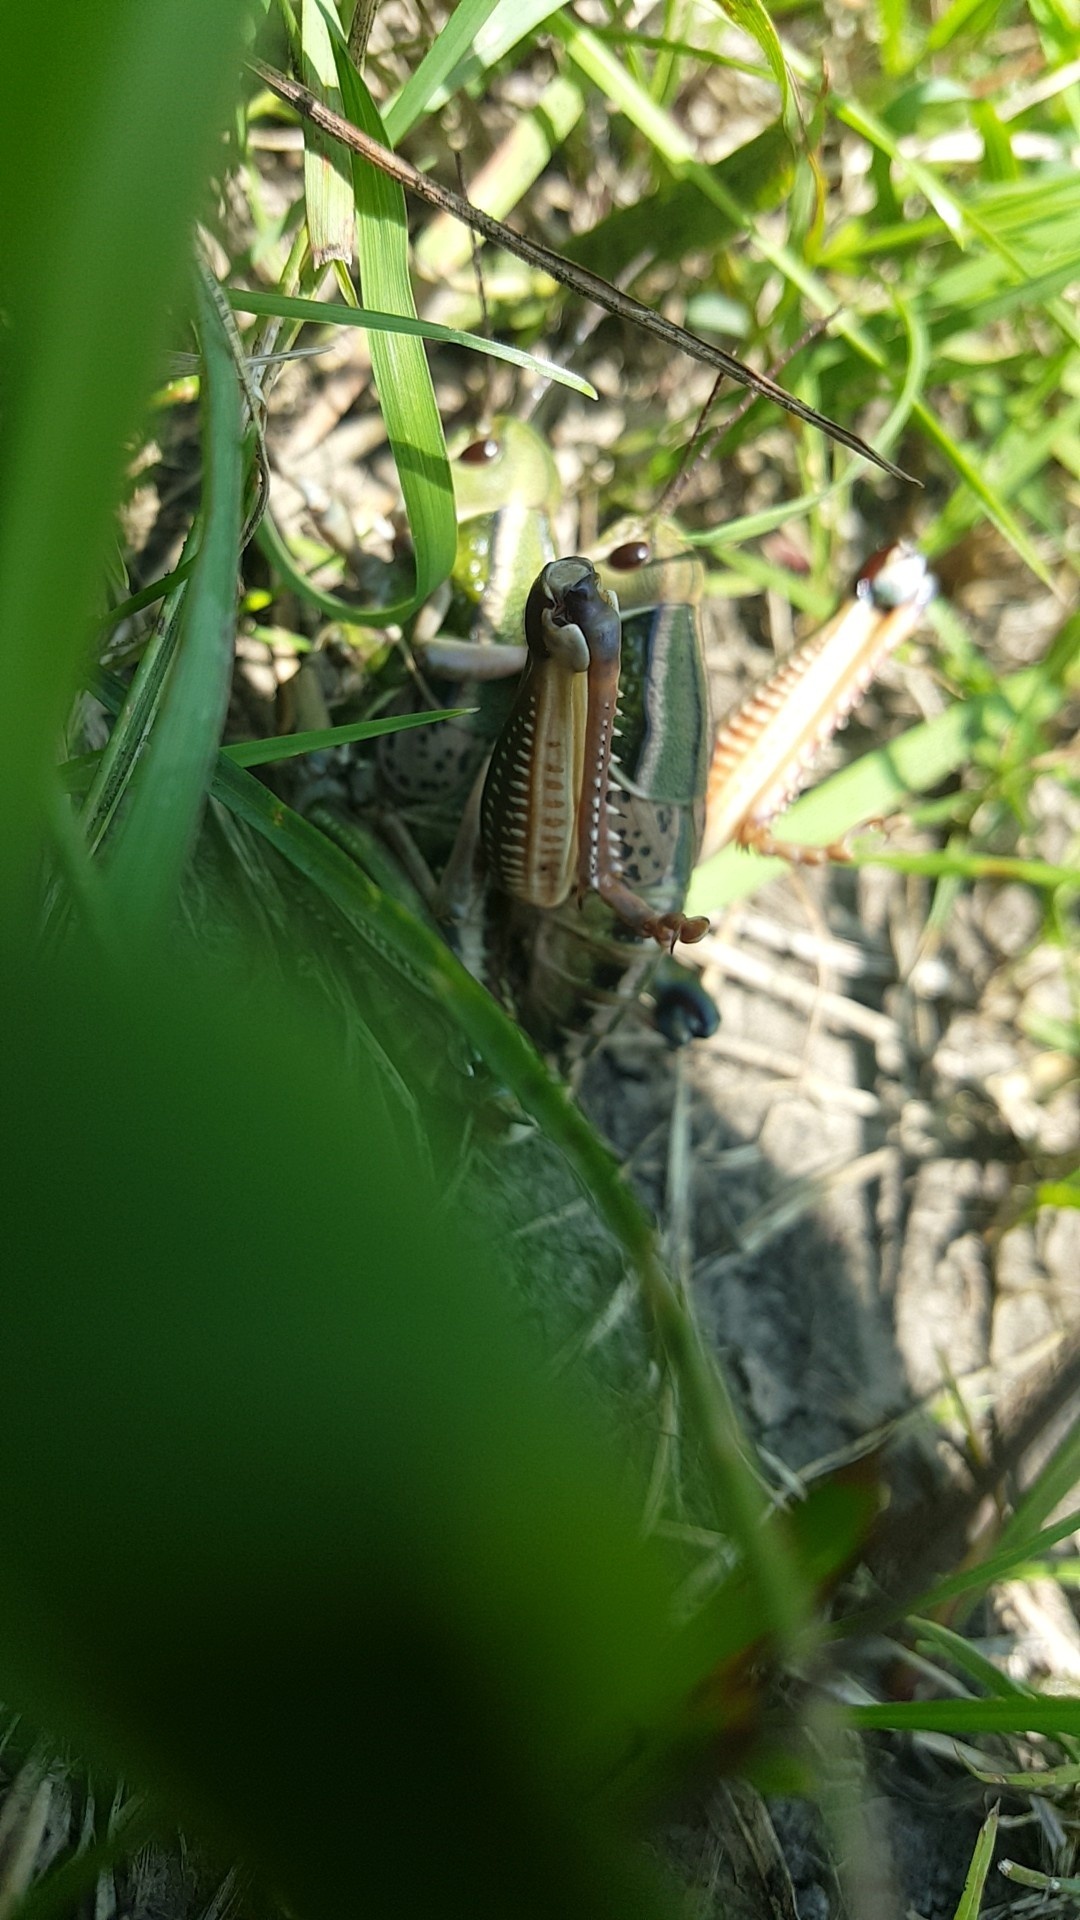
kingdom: Animalia
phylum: Arthropoda
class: Insecta
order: Orthoptera
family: Romaleidae
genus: Brachystola
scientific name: Brachystola magna
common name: Plains lubber grasshopper
